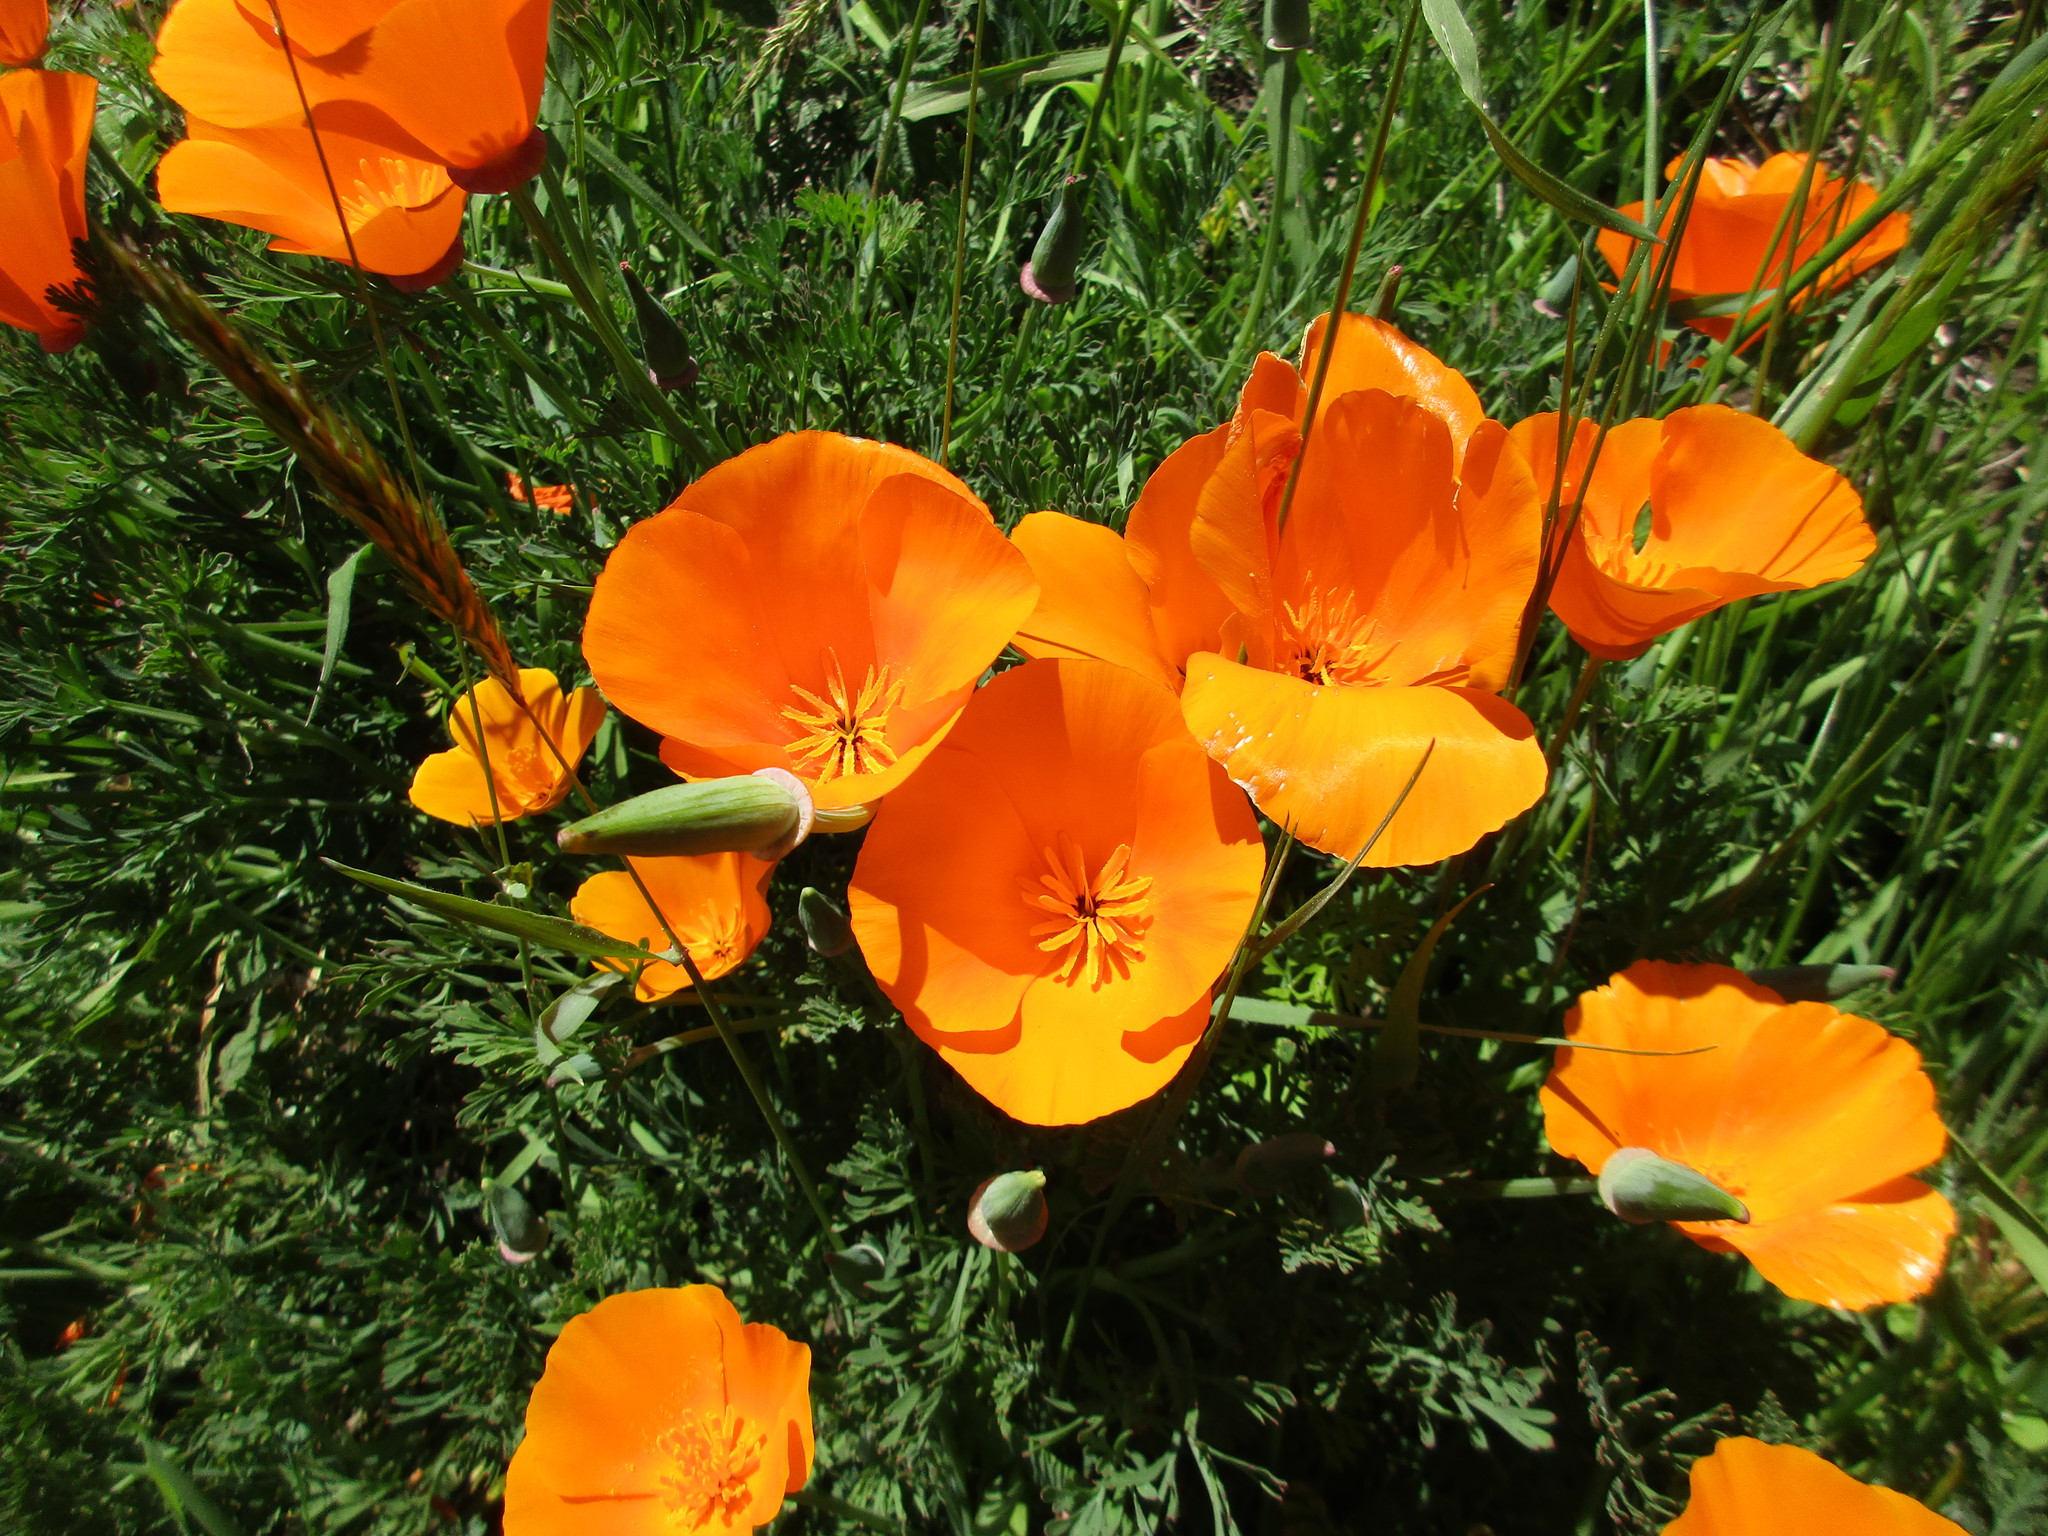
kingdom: Plantae
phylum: Tracheophyta
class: Magnoliopsida
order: Ranunculales
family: Papaveraceae
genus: Eschscholzia
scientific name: Eschscholzia californica
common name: California poppy
